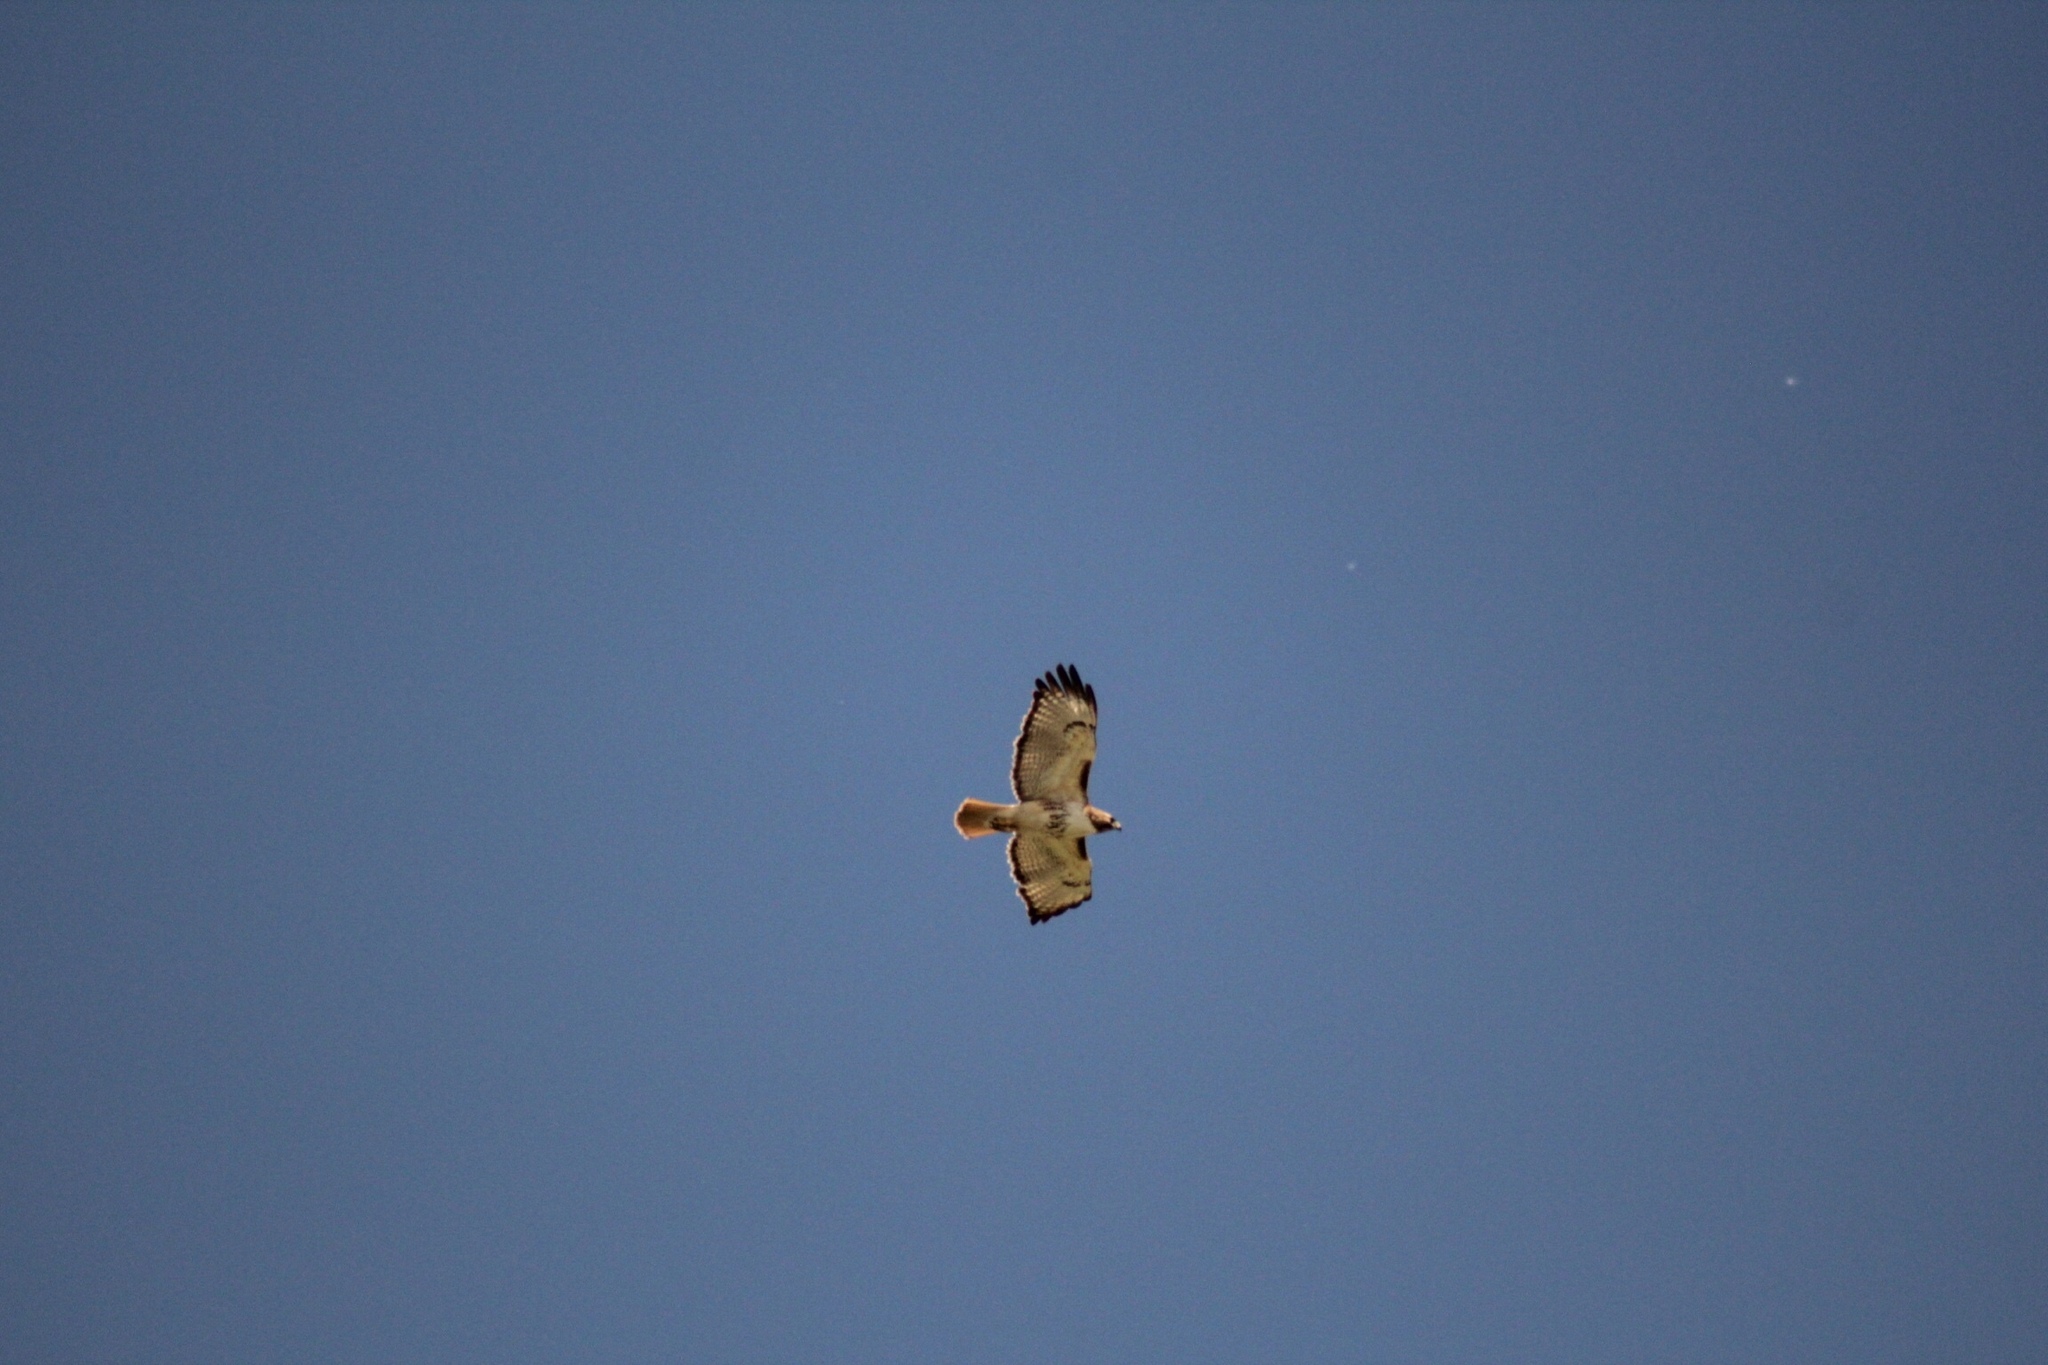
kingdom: Animalia
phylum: Chordata
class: Aves
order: Accipitriformes
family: Accipitridae
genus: Buteo
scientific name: Buteo jamaicensis
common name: Red-tailed hawk
